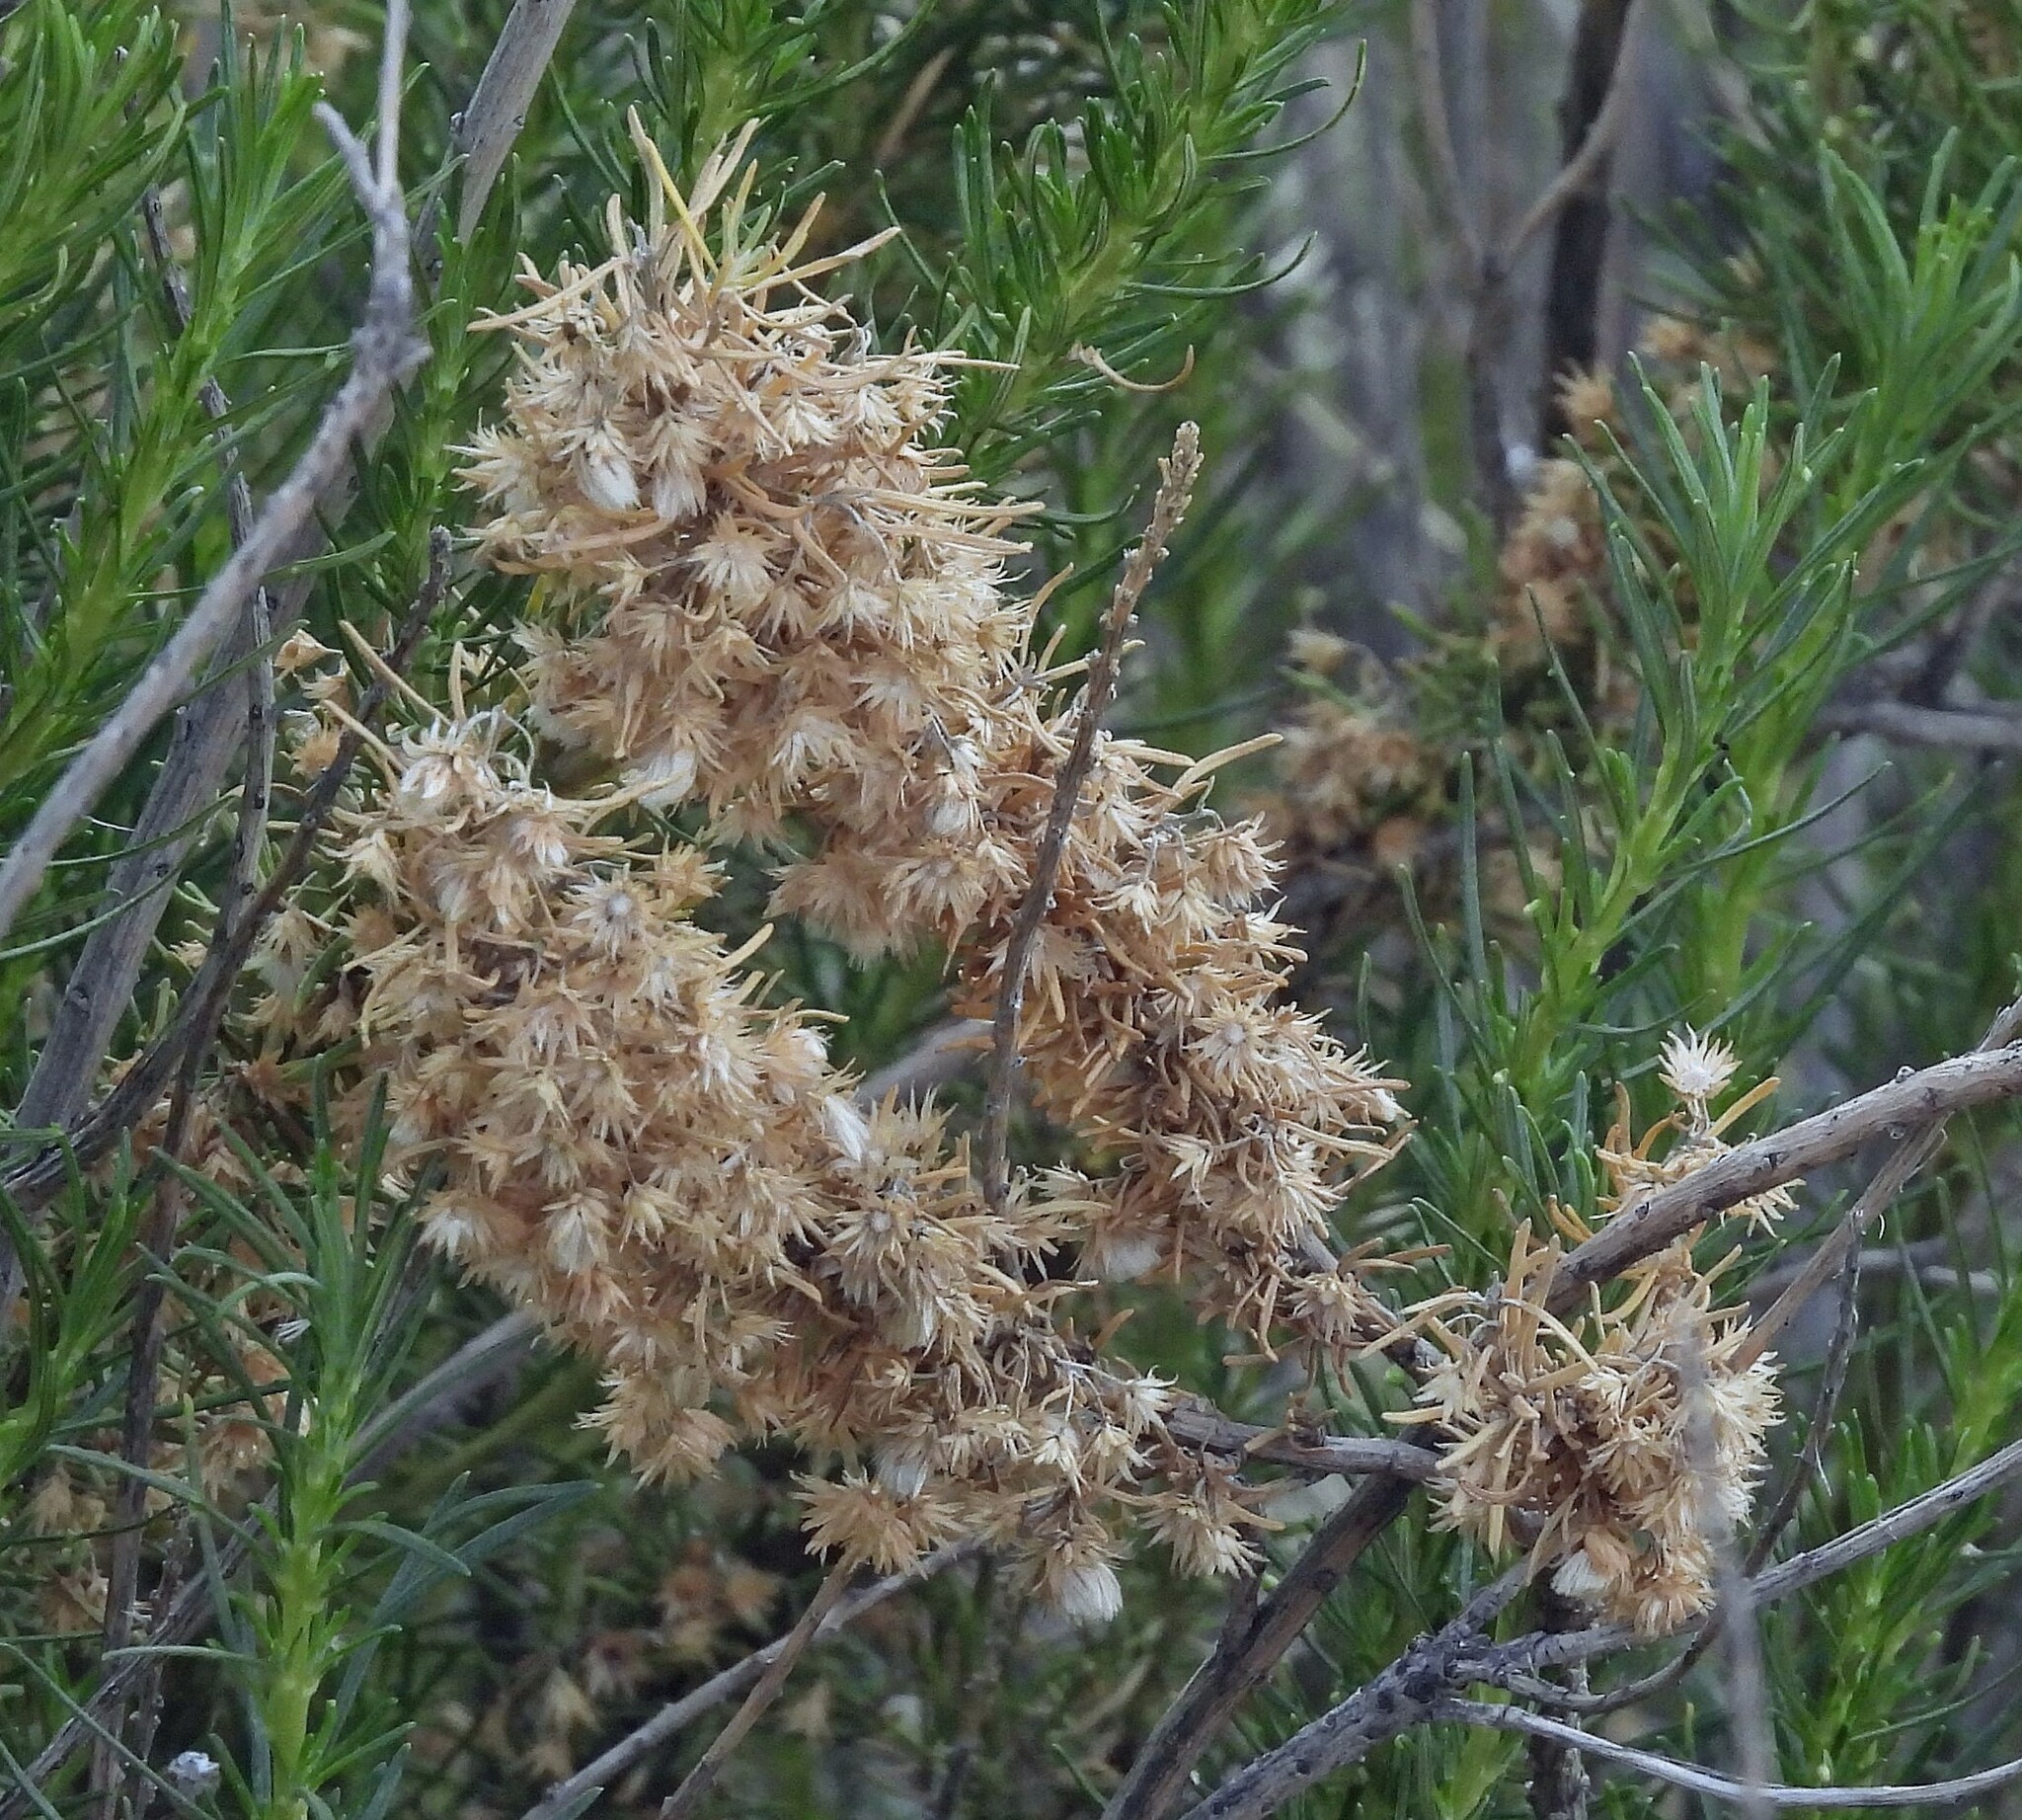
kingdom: Plantae
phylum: Tracheophyta
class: Magnoliopsida
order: Asterales
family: Asteraceae
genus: Baccharis
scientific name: Baccharis grisebachii
